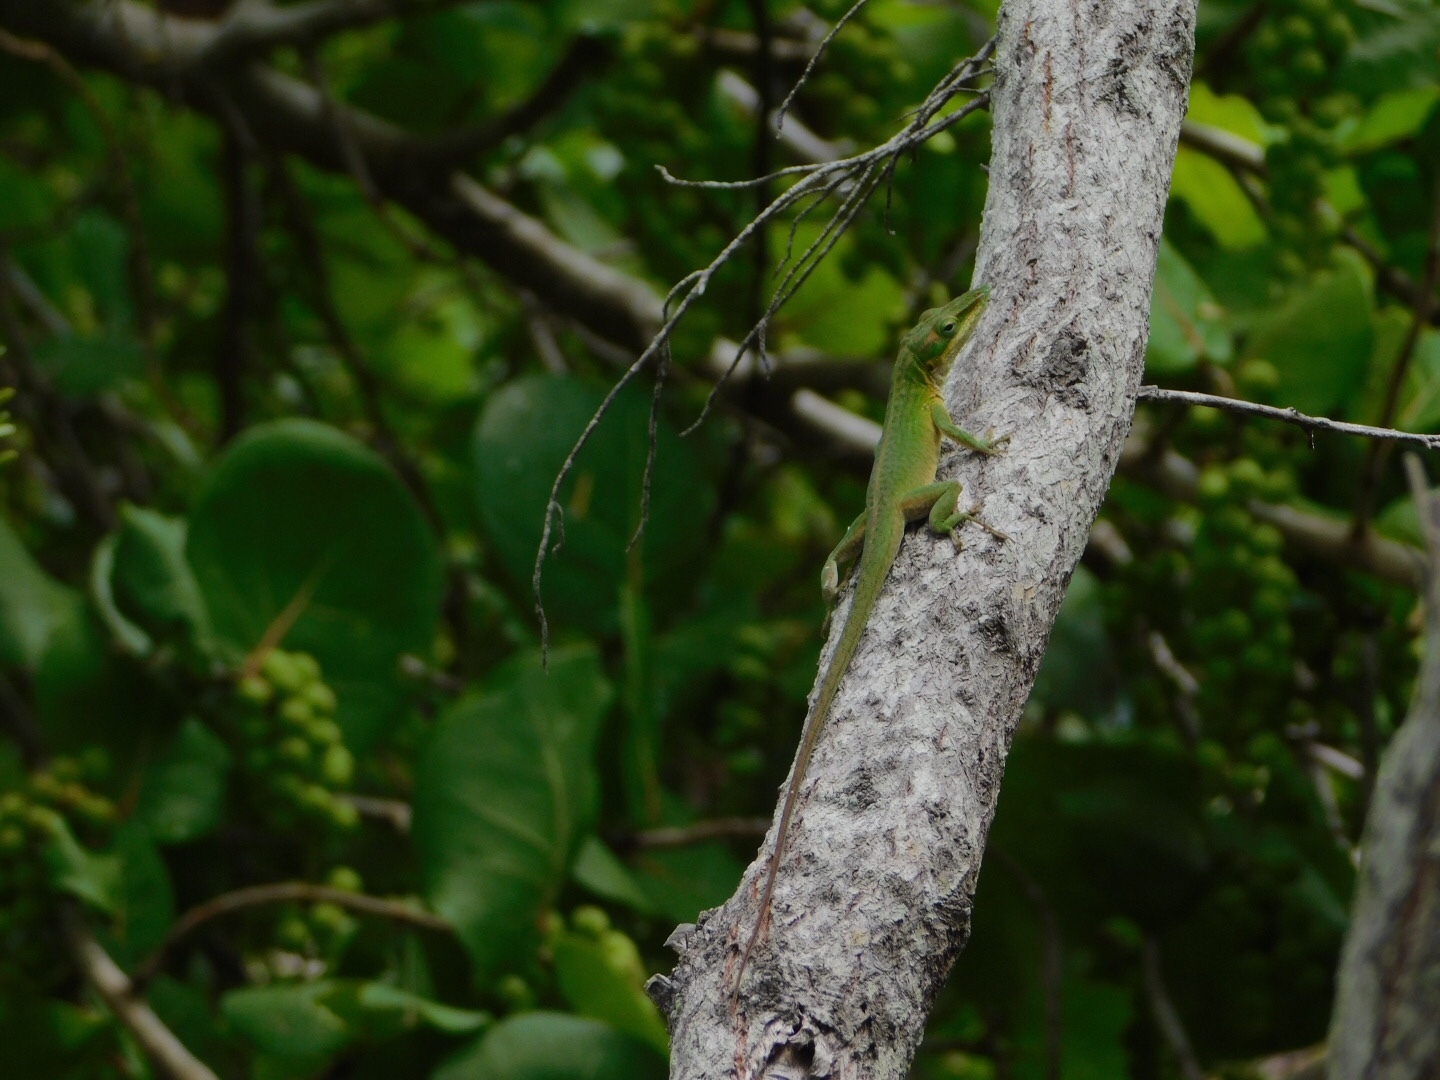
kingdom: Animalia
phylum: Chordata
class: Squamata
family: Dactyloidae
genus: Anolis
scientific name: Anolis carolinensis
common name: Green anole
